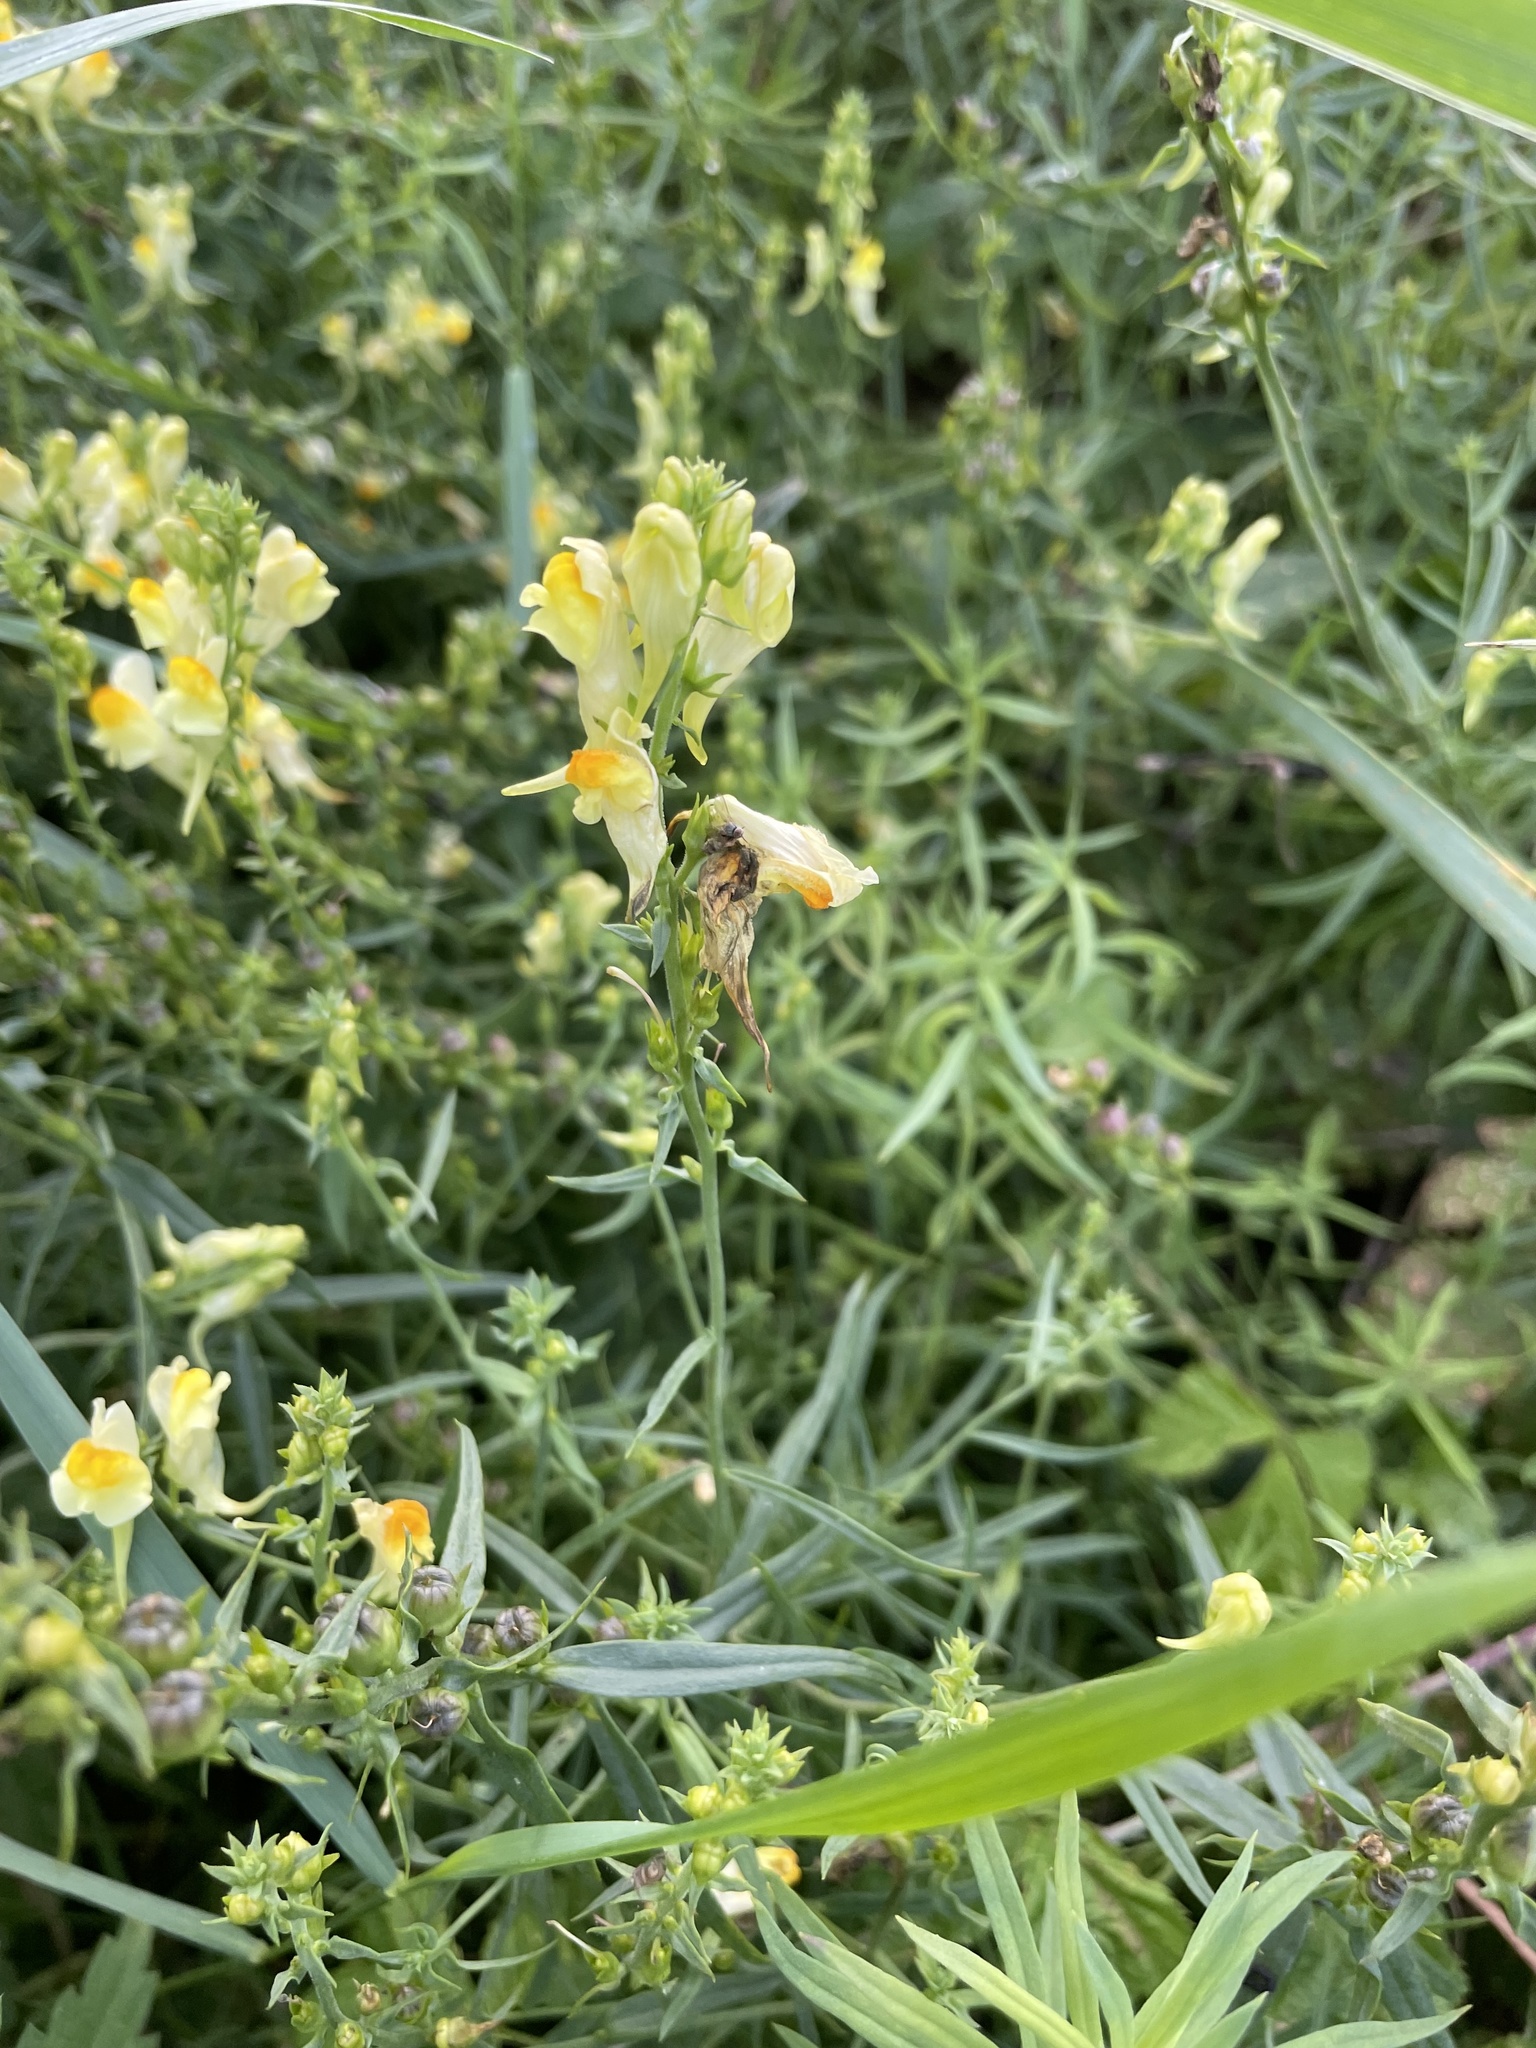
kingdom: Plantae
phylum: Tracheophyta
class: Magnoliopsida
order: Lamiales
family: Plantaginaceae
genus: Linaria
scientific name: Linaria vulgaris
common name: Butter and eggs
